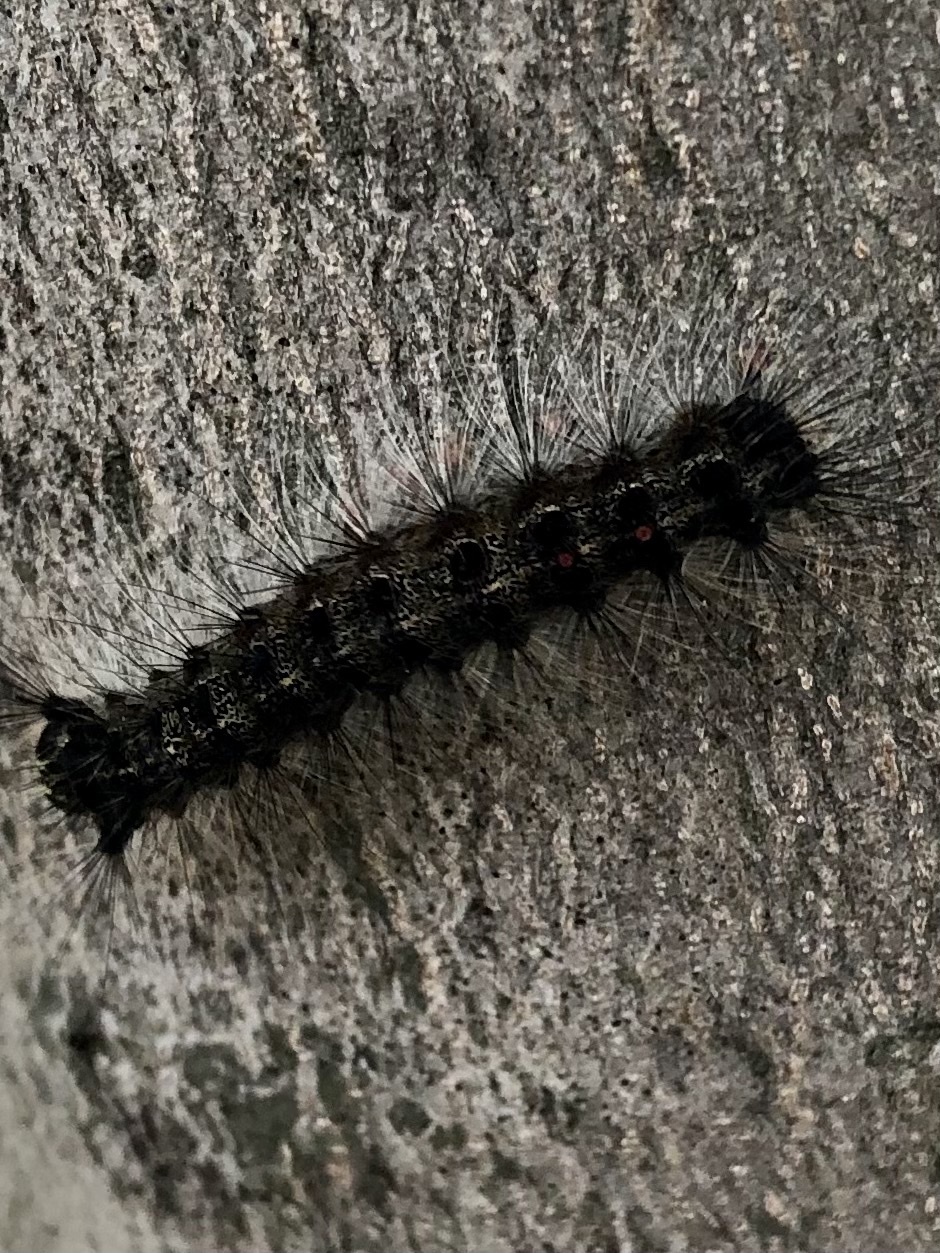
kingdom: Animalia
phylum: Arthropoda
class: Insecta
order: Lepidoptera
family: Erebidae
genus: Lymantria
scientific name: Lymantria dispar
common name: Gypsy moth
